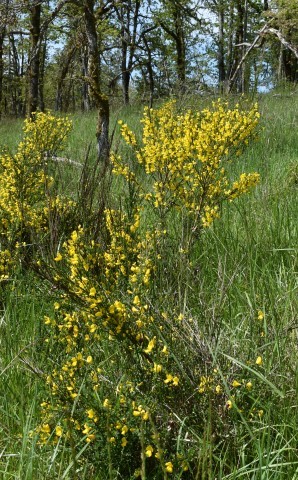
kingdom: Plantae
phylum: Tracheophyta
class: Magnoliopsida
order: Fabales
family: Fabaceae
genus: Cytisus
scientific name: Cytisus scoparius
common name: Scotch broom
